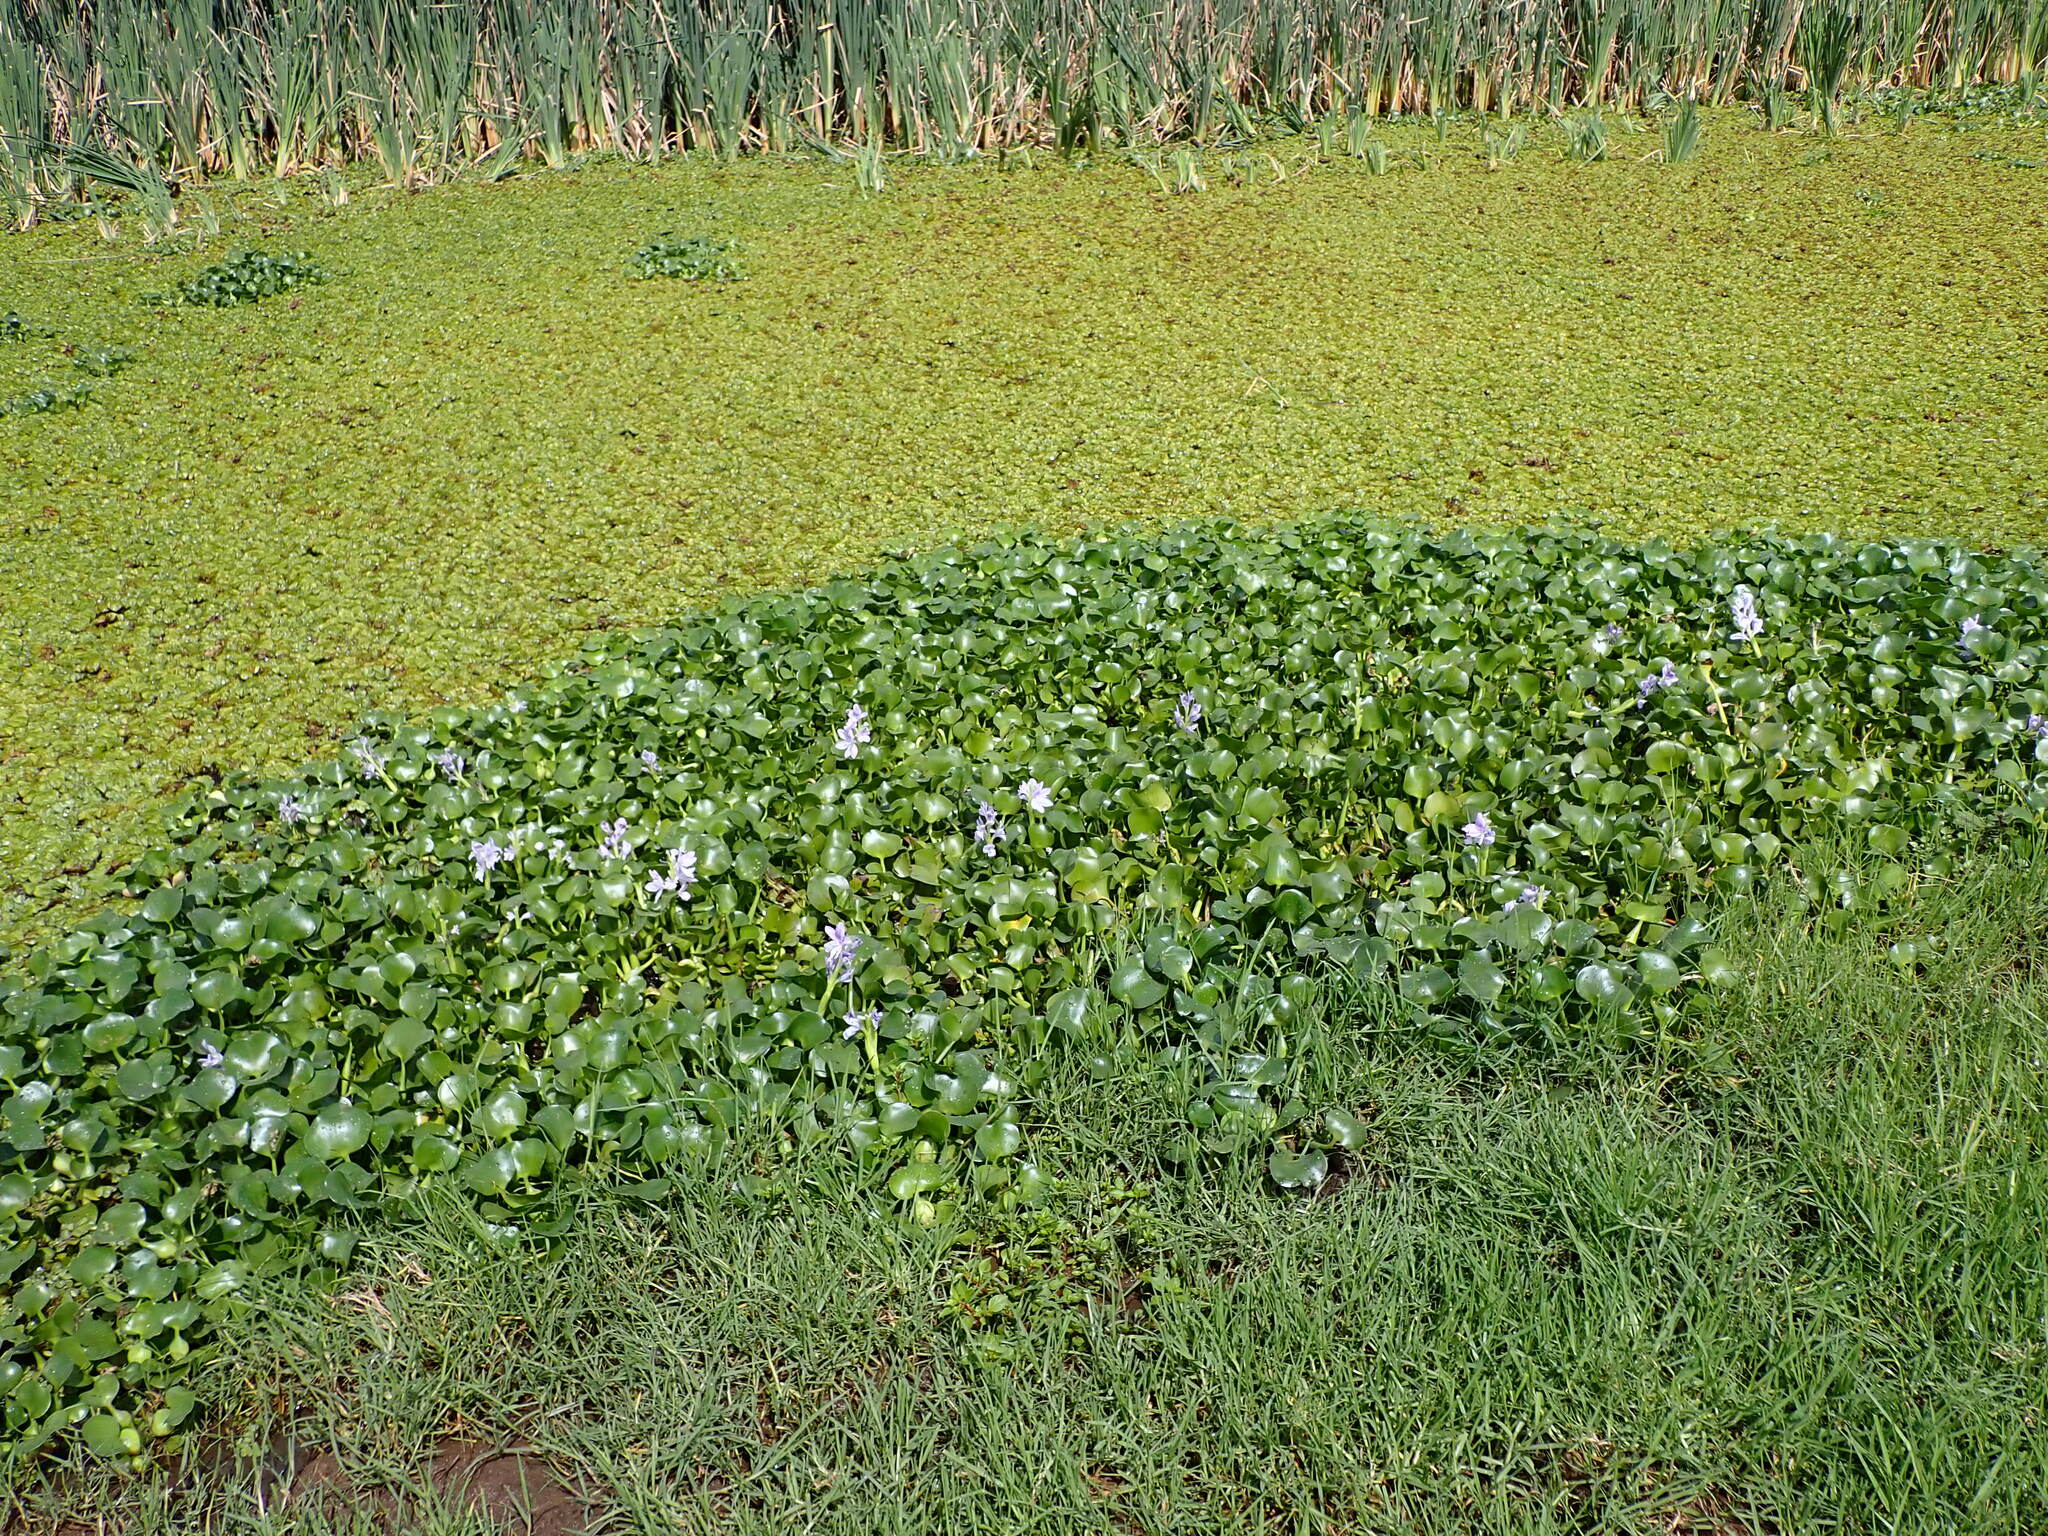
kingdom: Plantae
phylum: Tracheophyta
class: Liliopsida
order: Commelinales
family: Pontederiaceae
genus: Pontederia
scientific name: Pontederia crassipes
